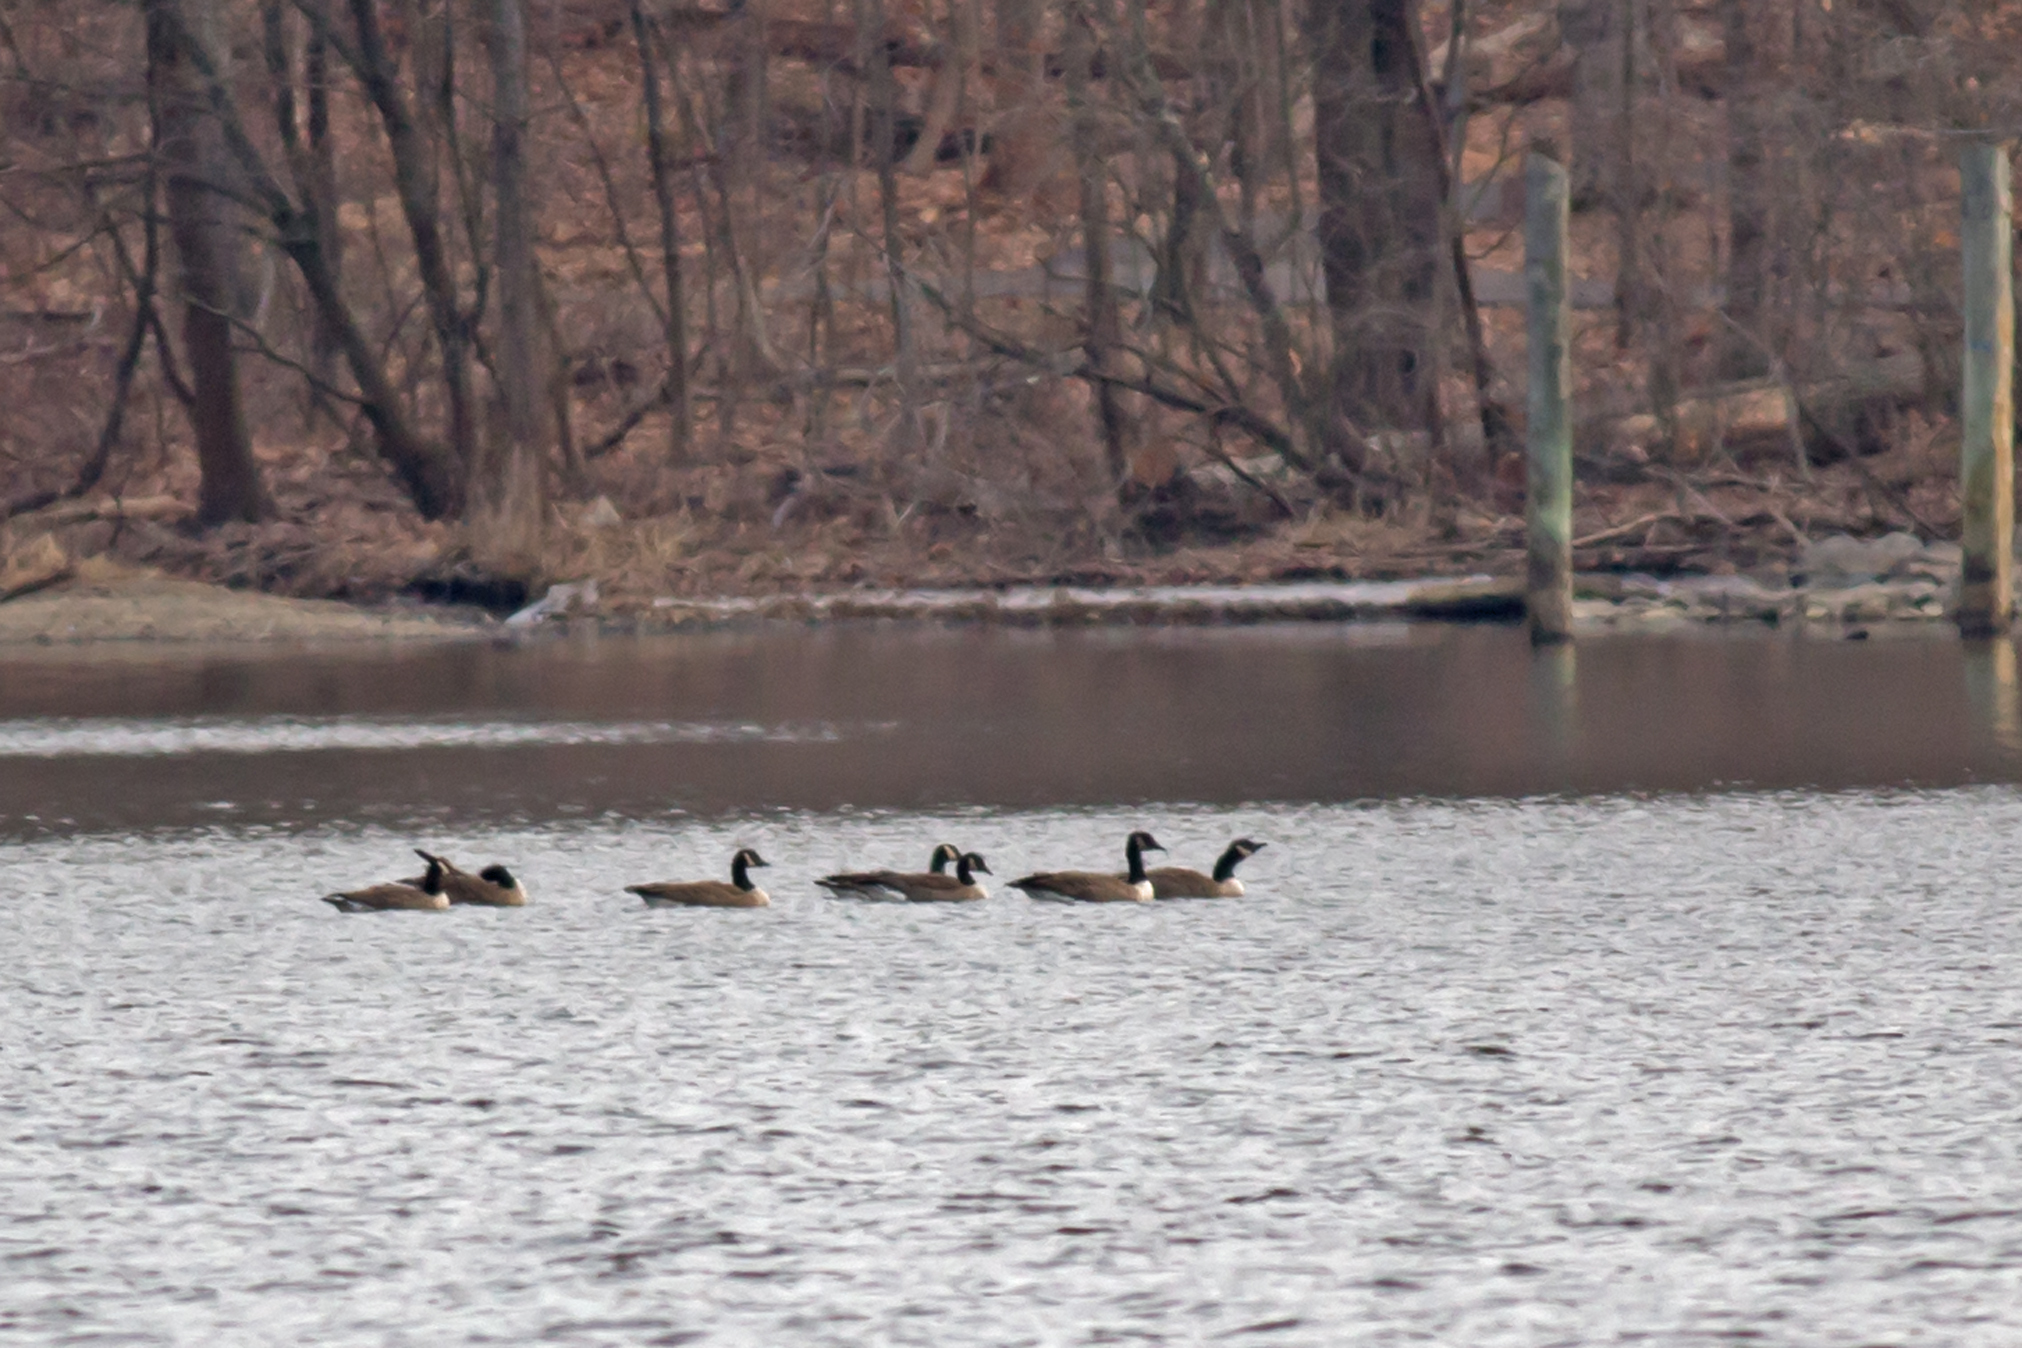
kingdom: Animalia
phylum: Chordata
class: Aves
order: Anseriformes
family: Anatidae
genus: Branta
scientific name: Branta canadensis
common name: Canada goose
